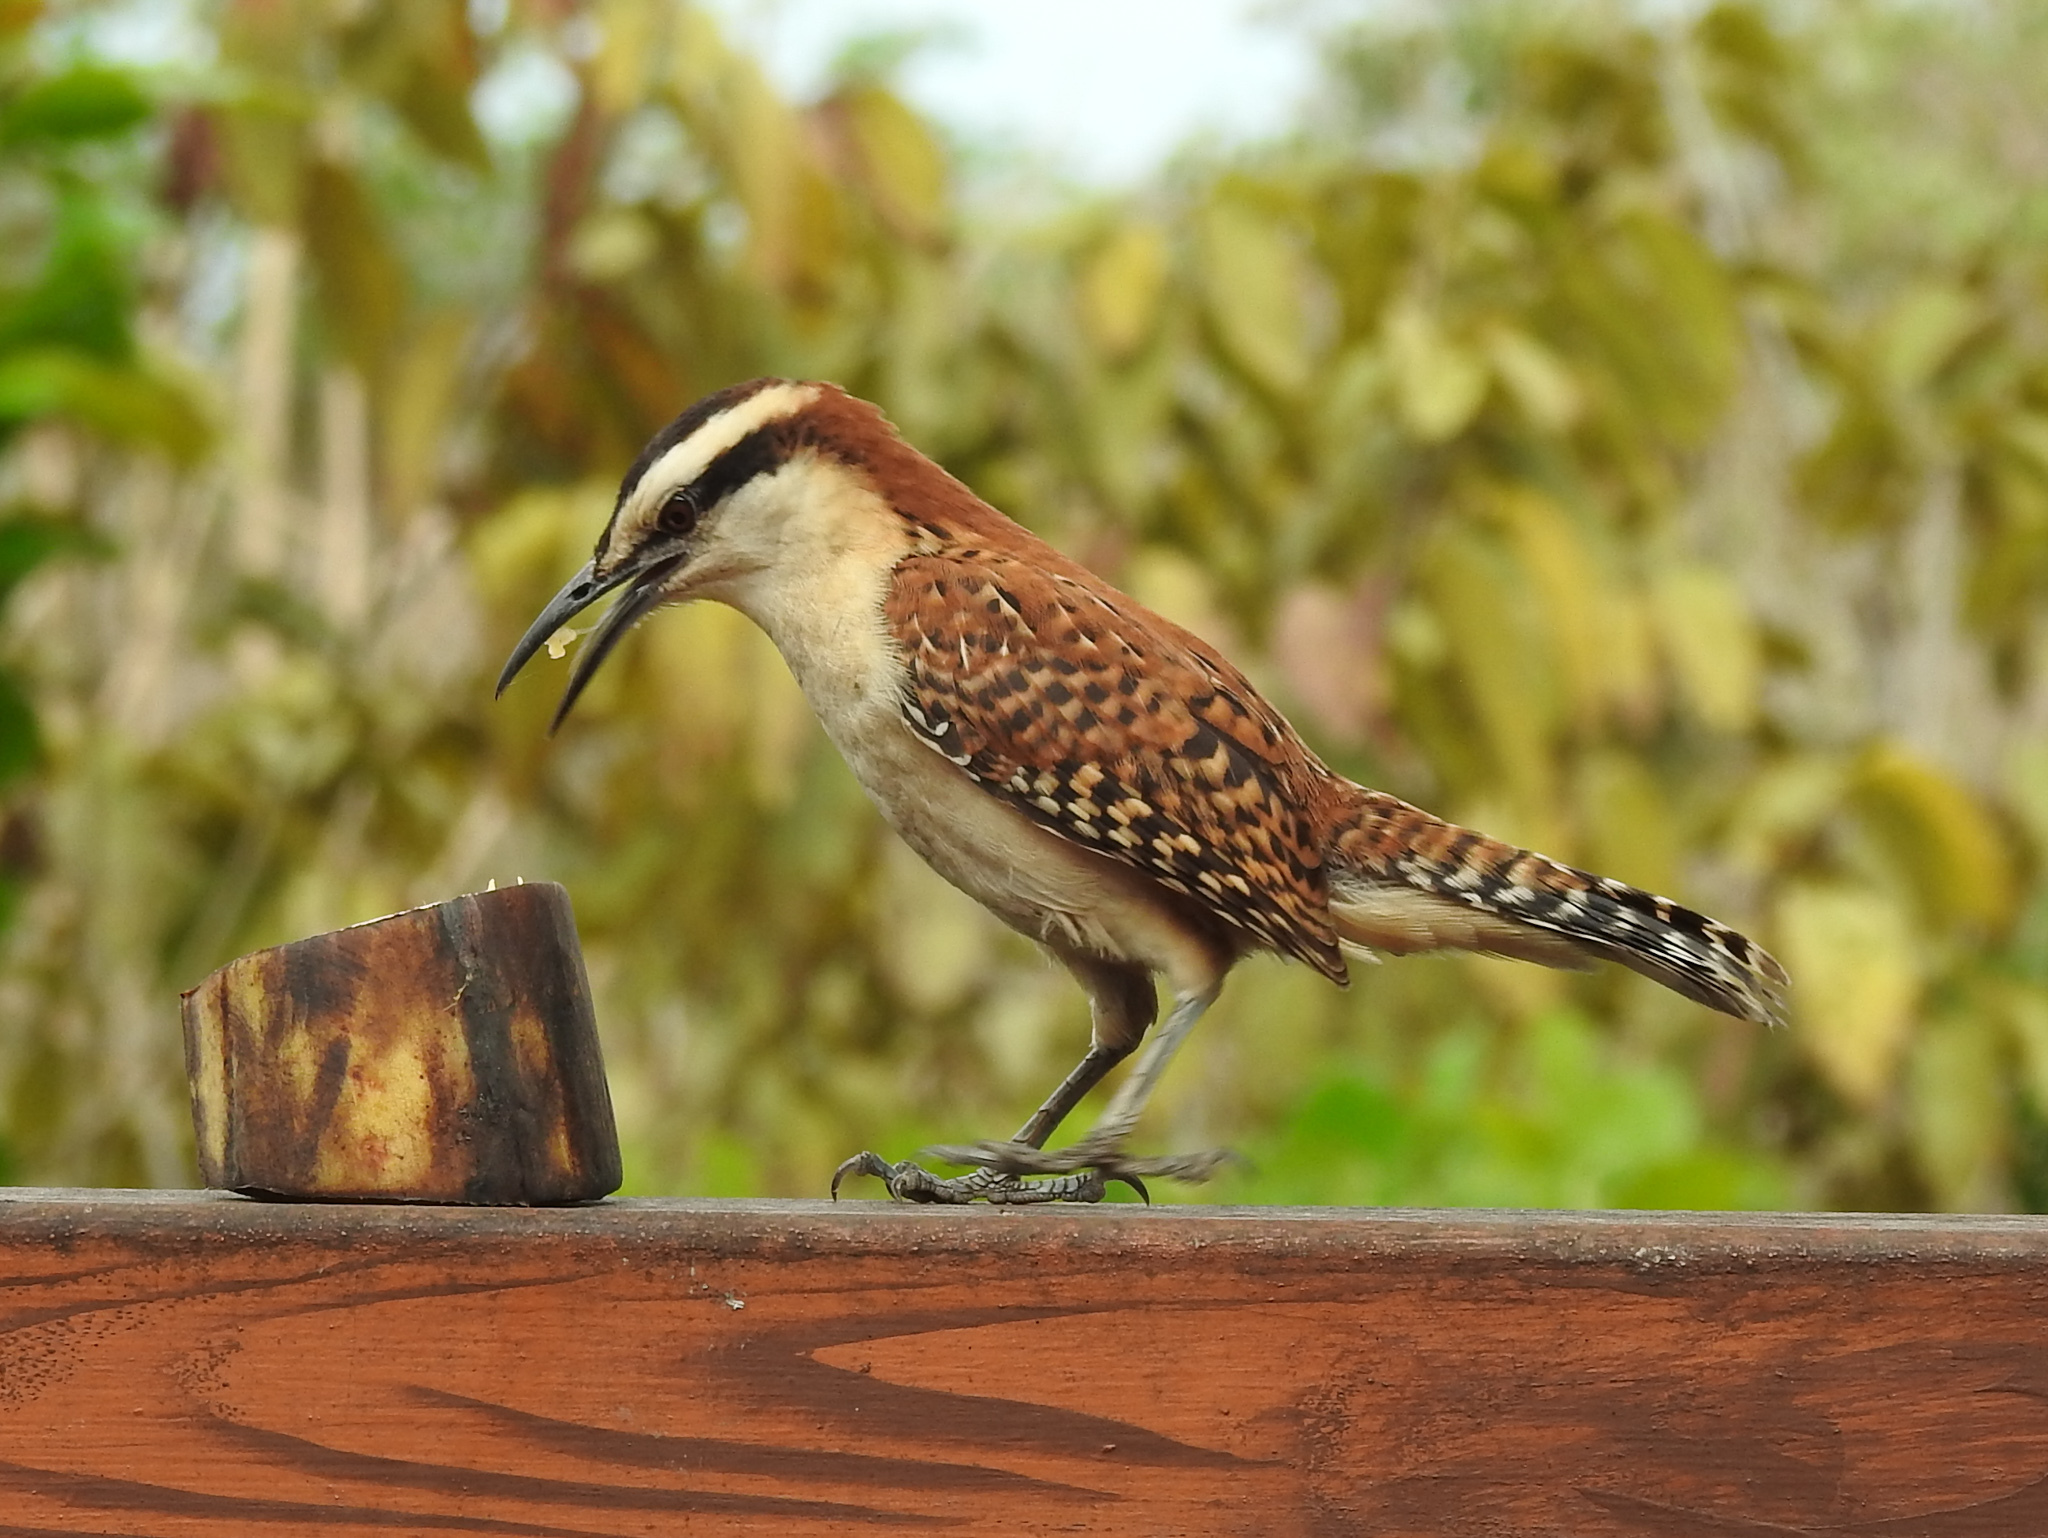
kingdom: Animalia
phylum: Chordata
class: Aves
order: Passeriformes
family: Troglodytidae
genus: Campylorhynchus
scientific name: Campylorhynchus rufinucha
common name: Rufous-naped wren
